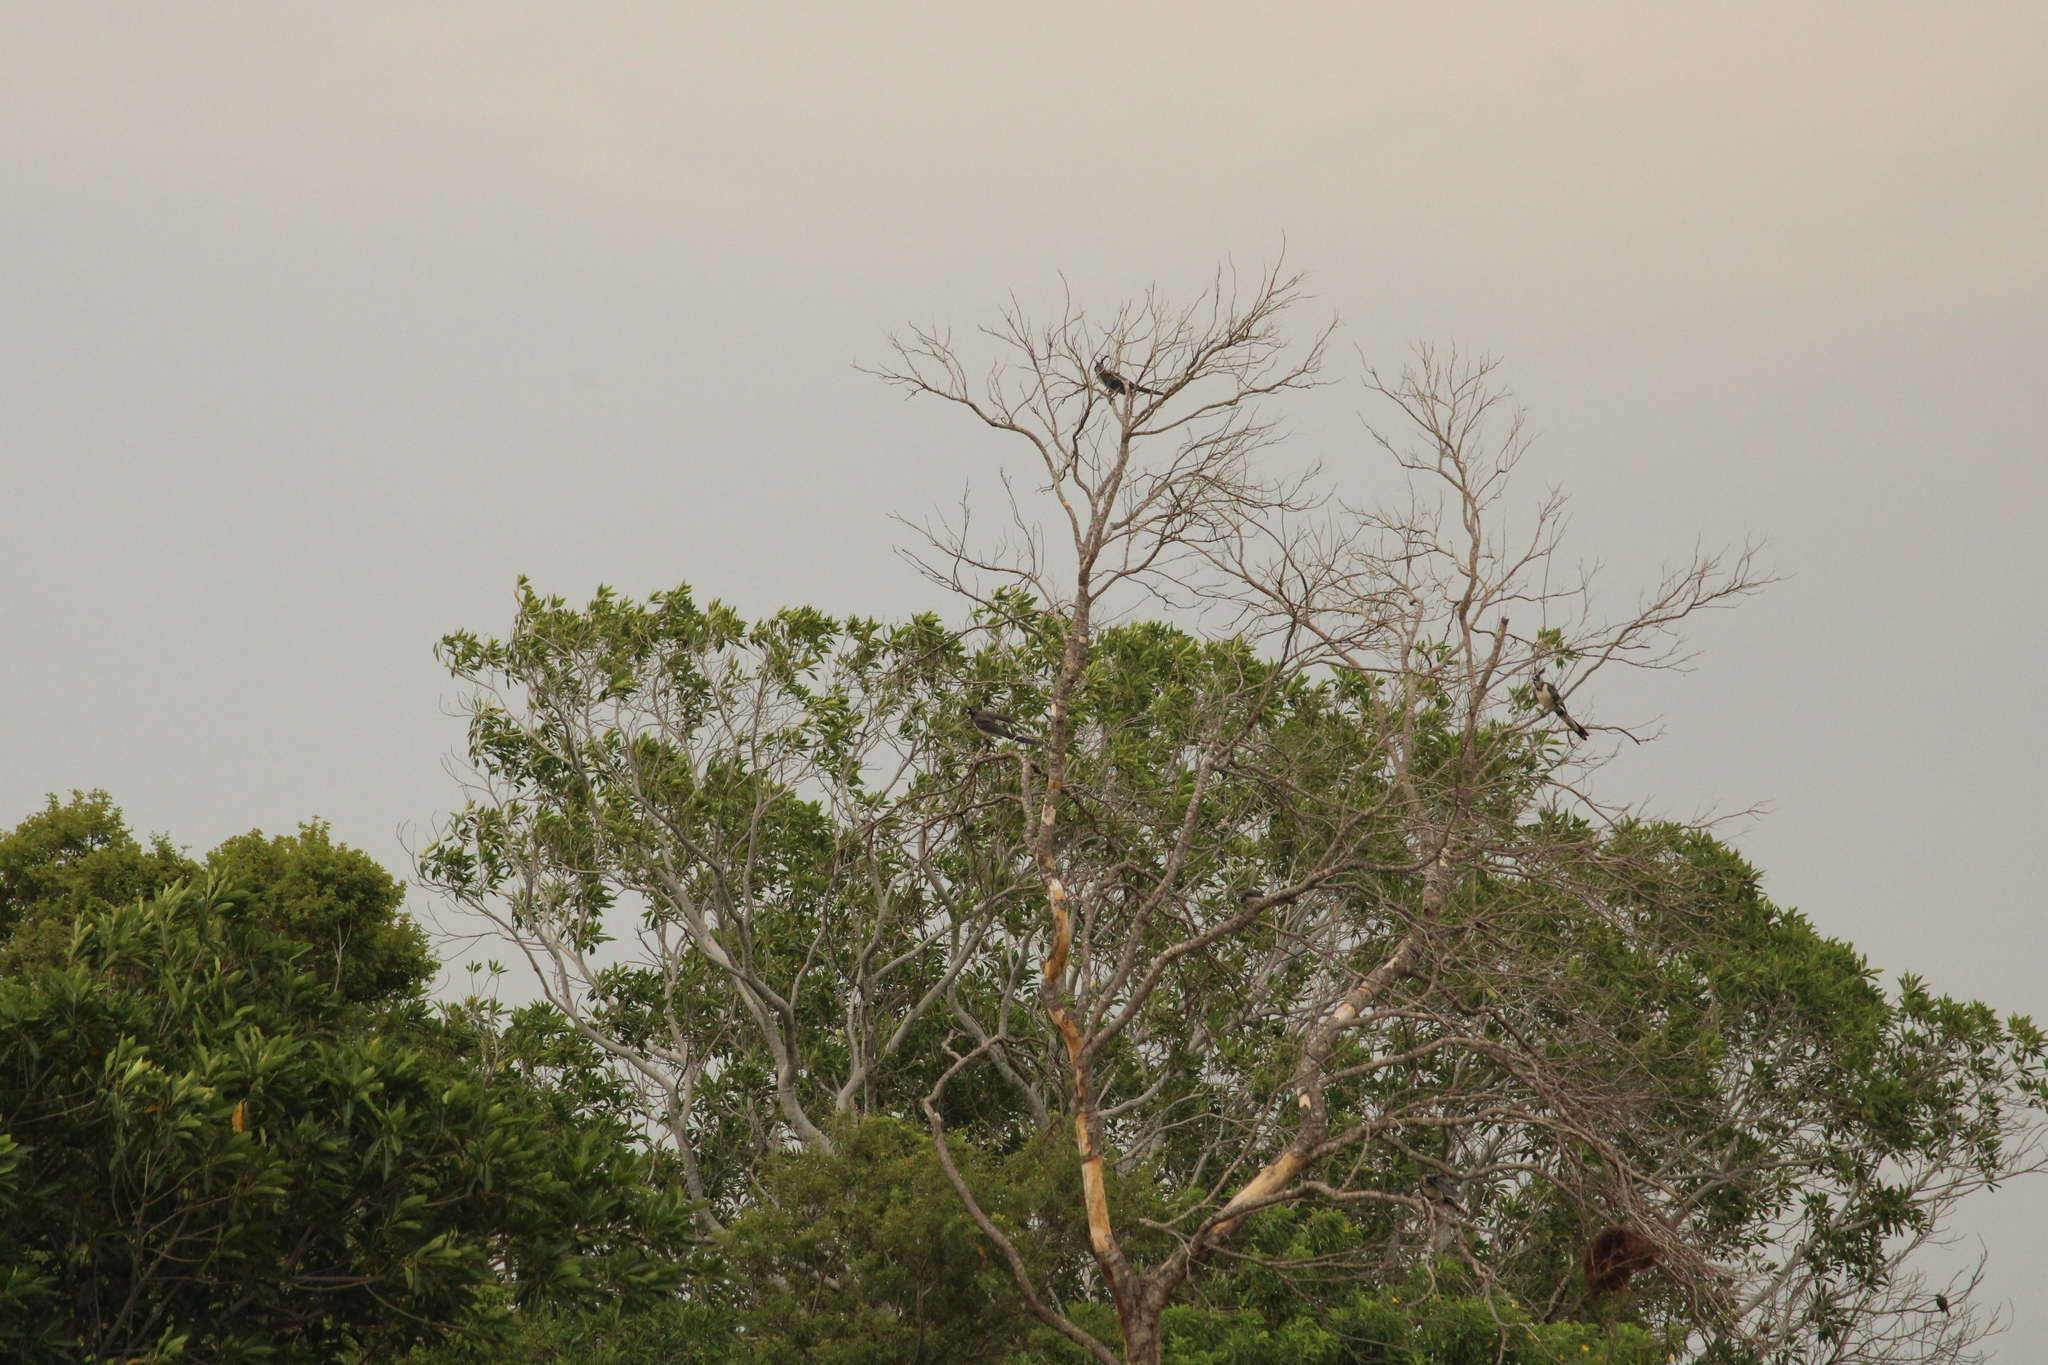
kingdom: Animalia
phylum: Chordata
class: Aves
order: Passeriformes
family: Corvidae
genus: Calocitta
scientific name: Calocitta formosa
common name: White-throated magpie-jay
